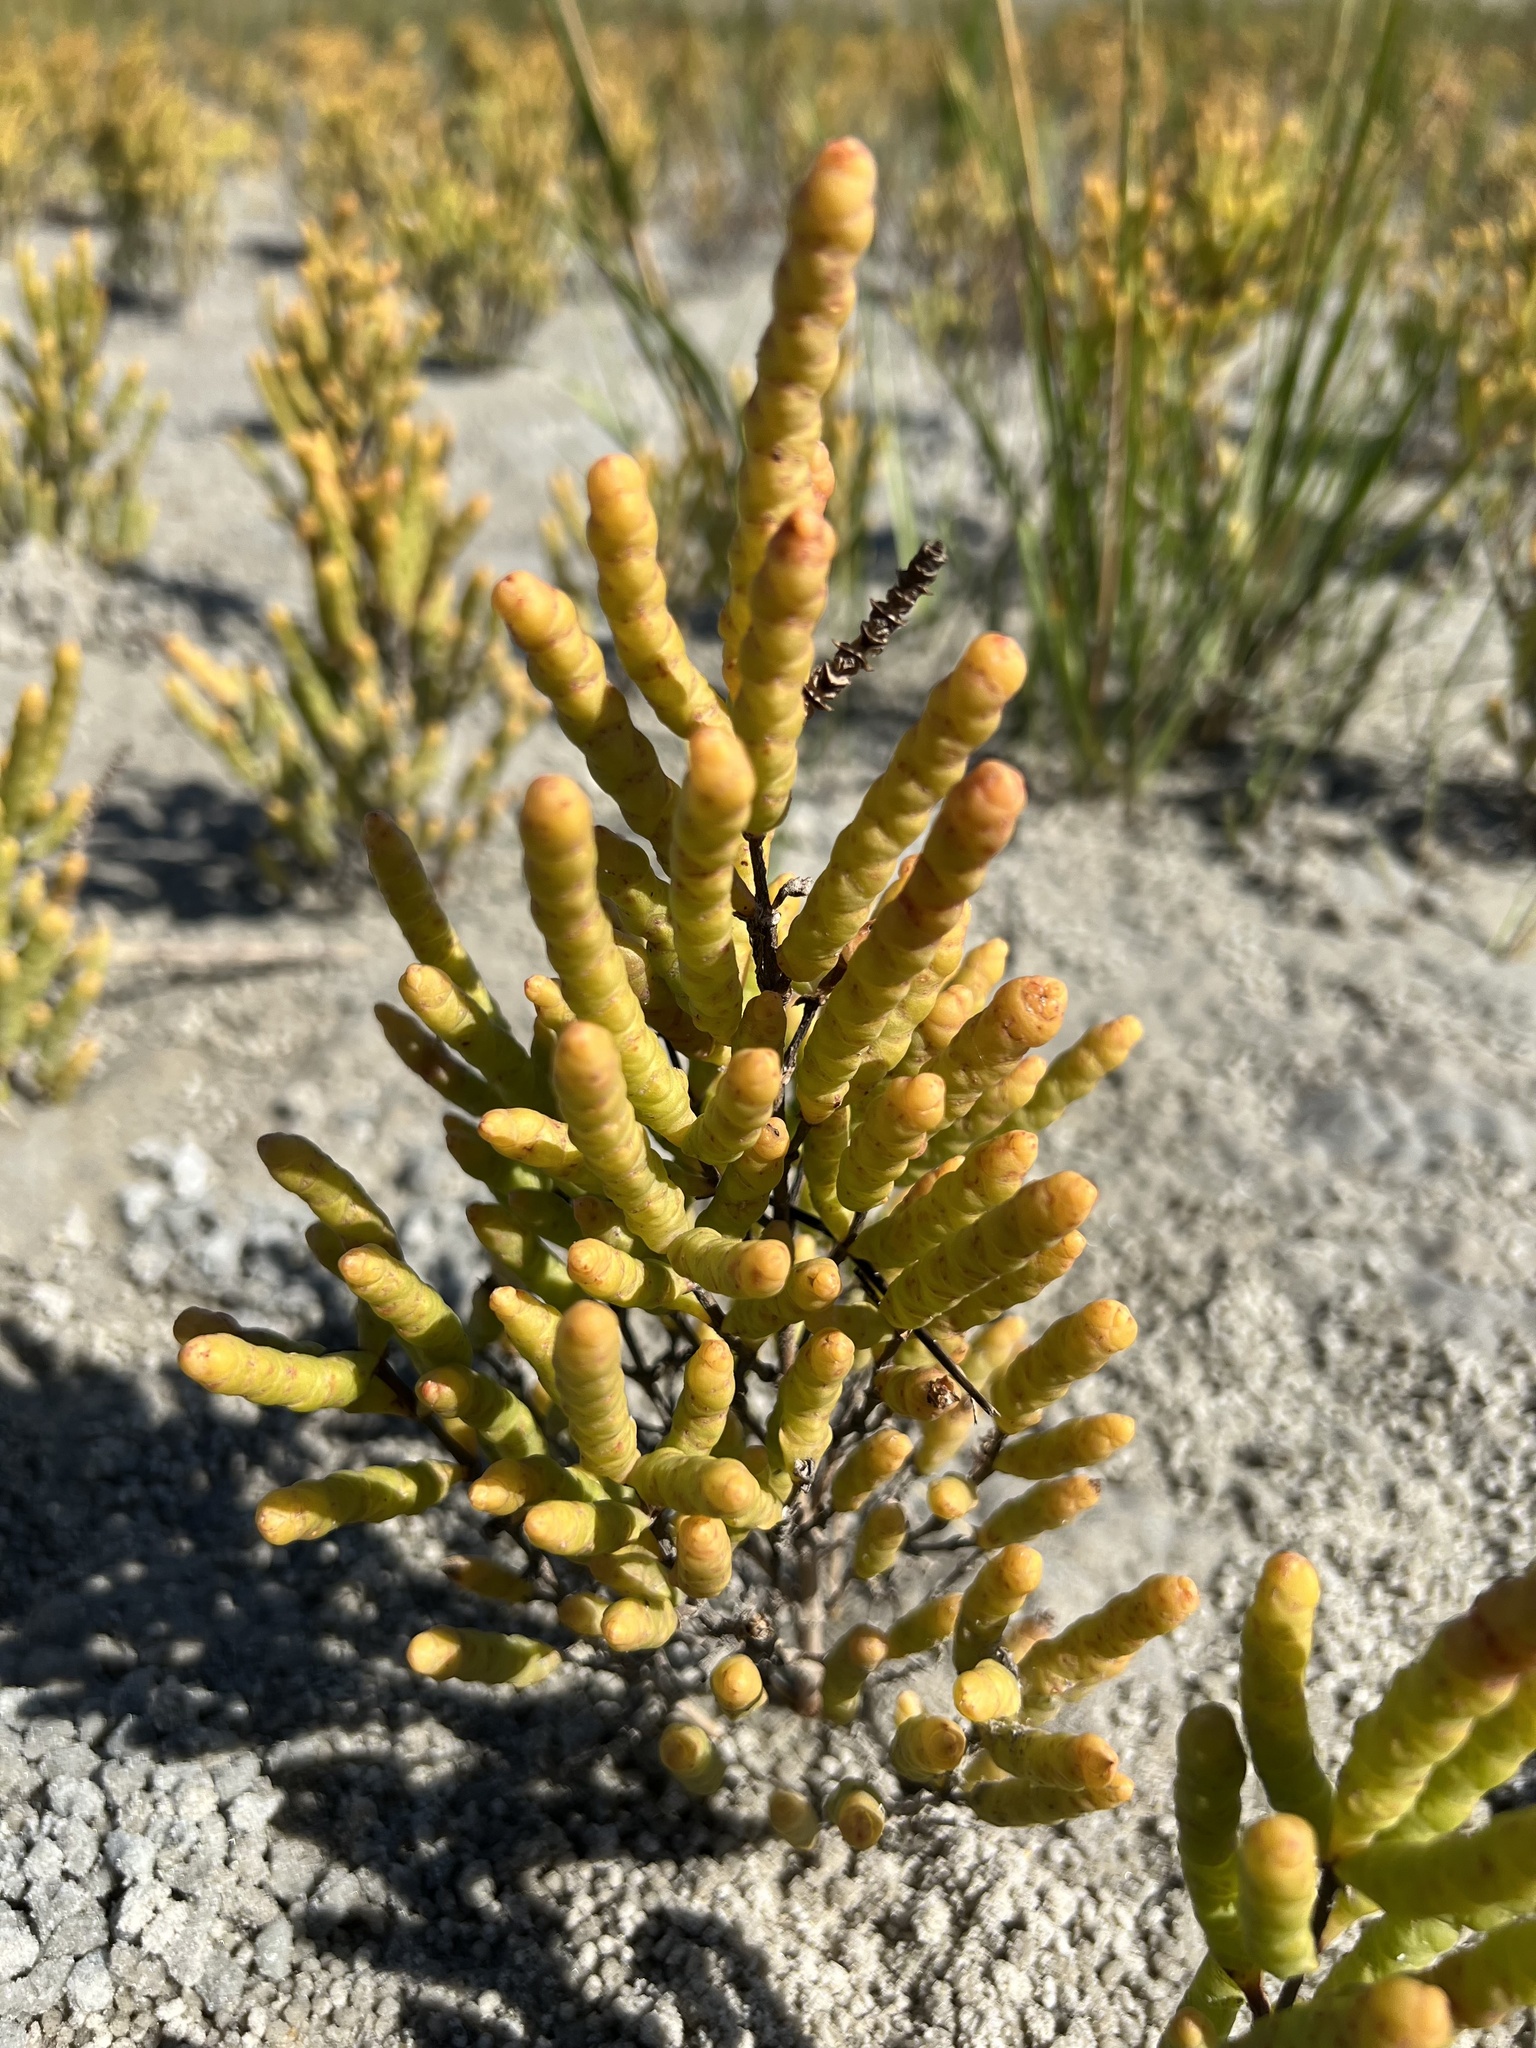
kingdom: Plantae
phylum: Tracheophyta
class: Magnoliopsida
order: Caryophyllales
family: Amaranthaceae
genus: Salicornia
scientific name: Salicornia bigelovii
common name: Dwarf glasswort
